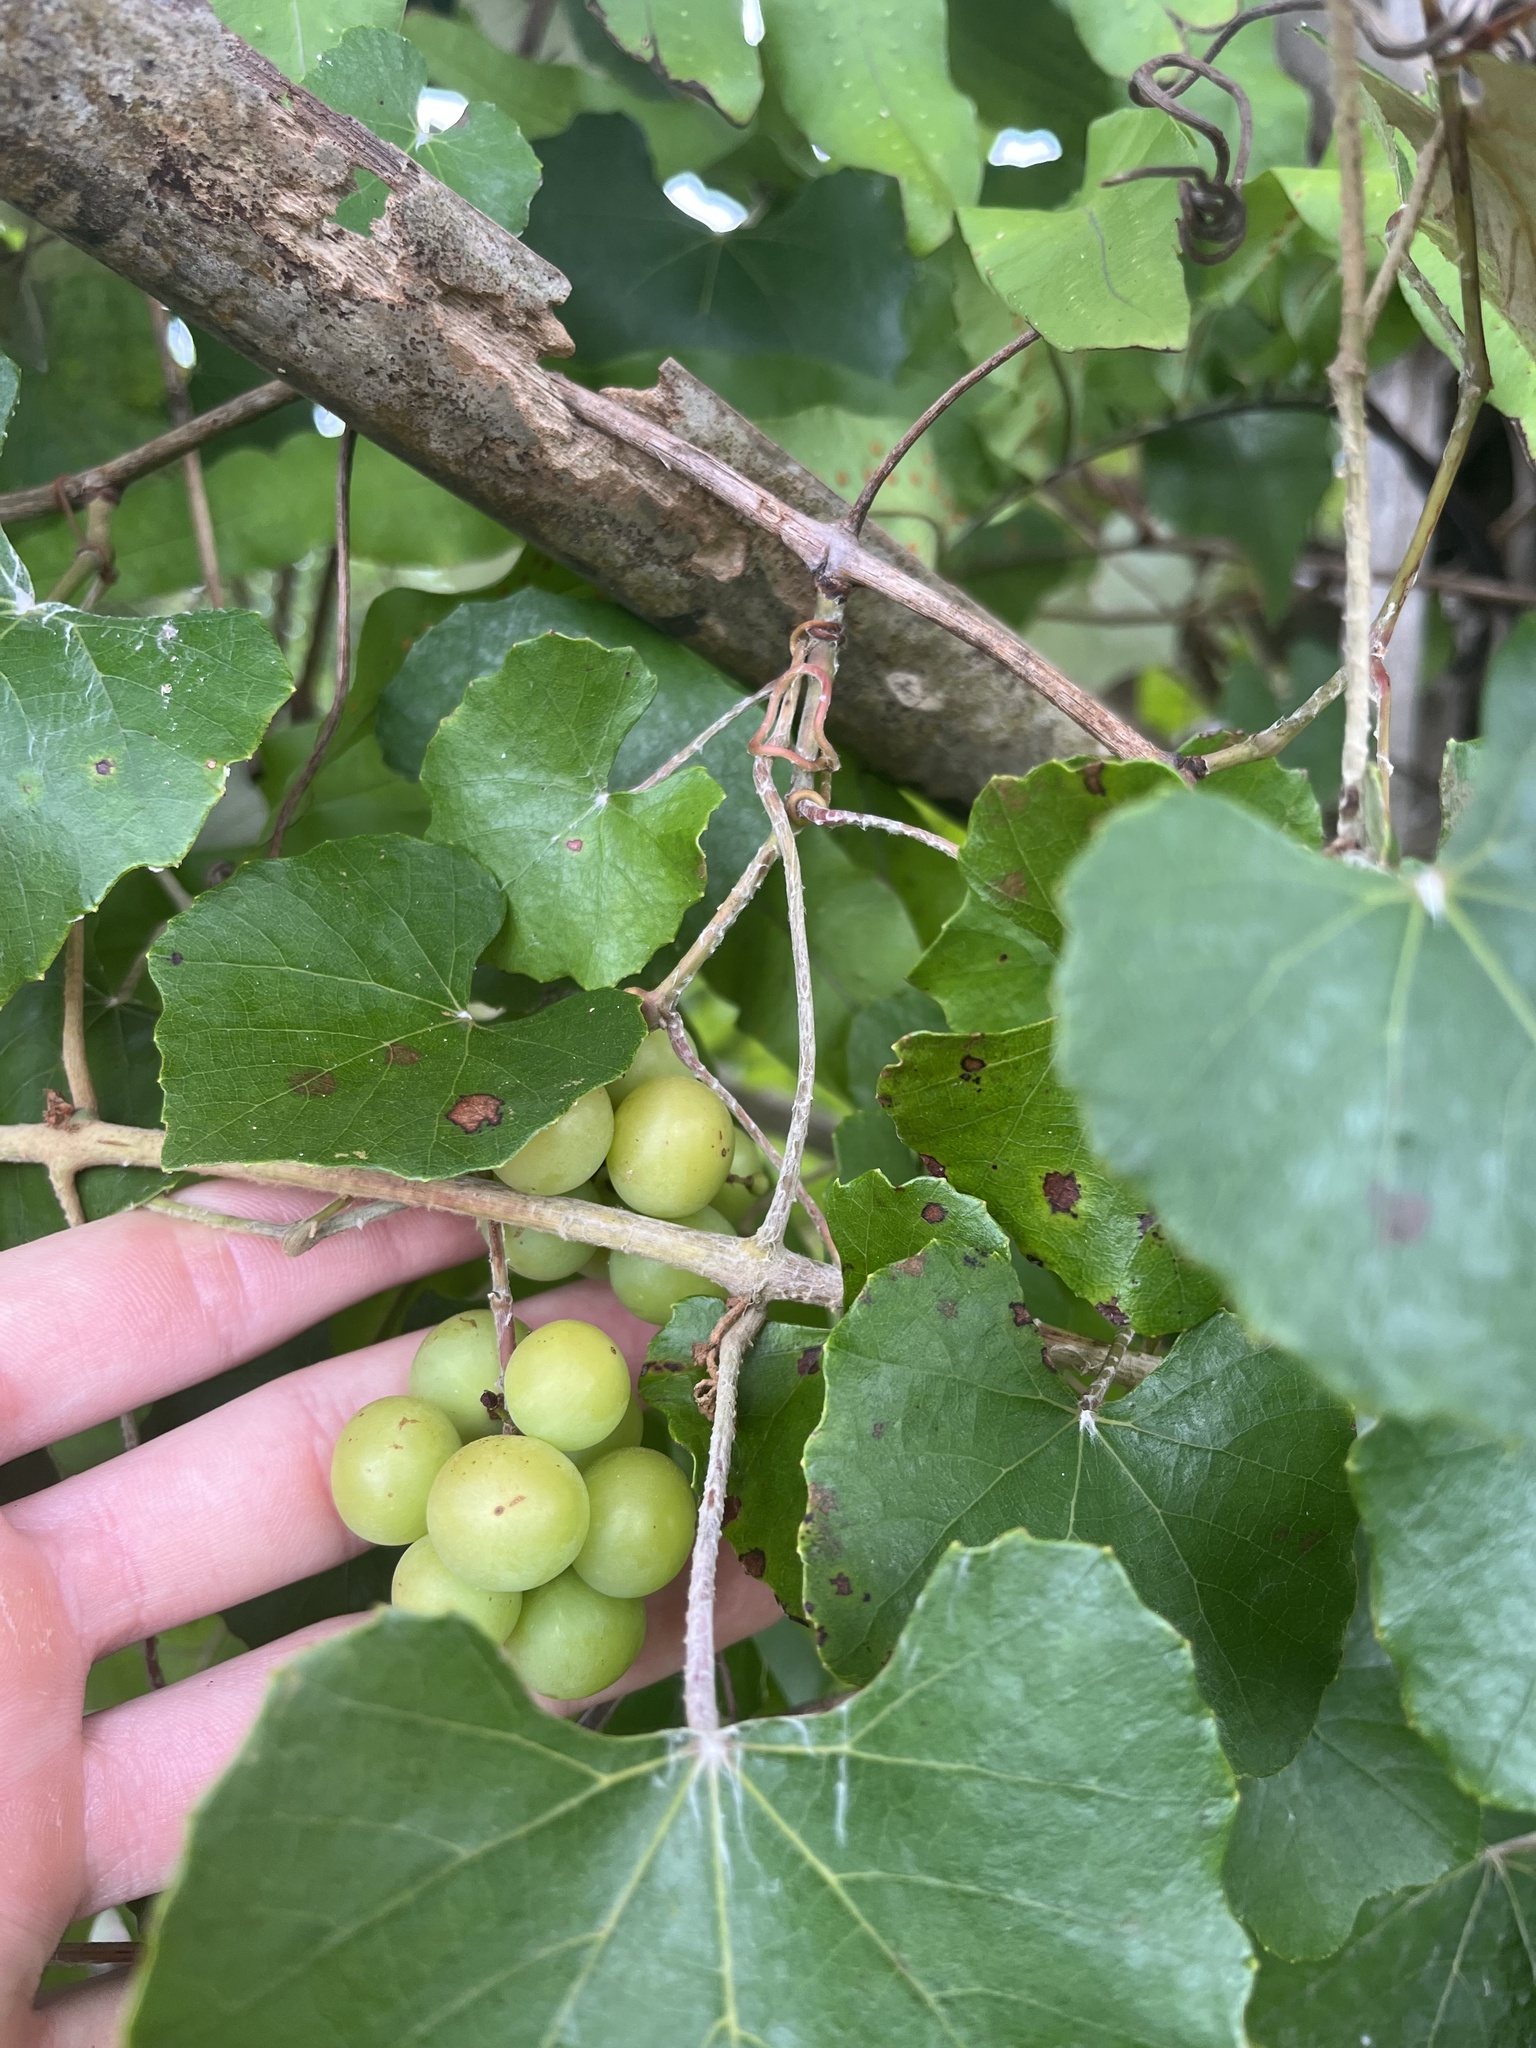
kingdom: Plantae
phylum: Tracheophyta
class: Magnoliopsida
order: Vitales
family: Vitaceae
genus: Vitis
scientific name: Vitis shuttleworthii
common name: Caloosa grape
